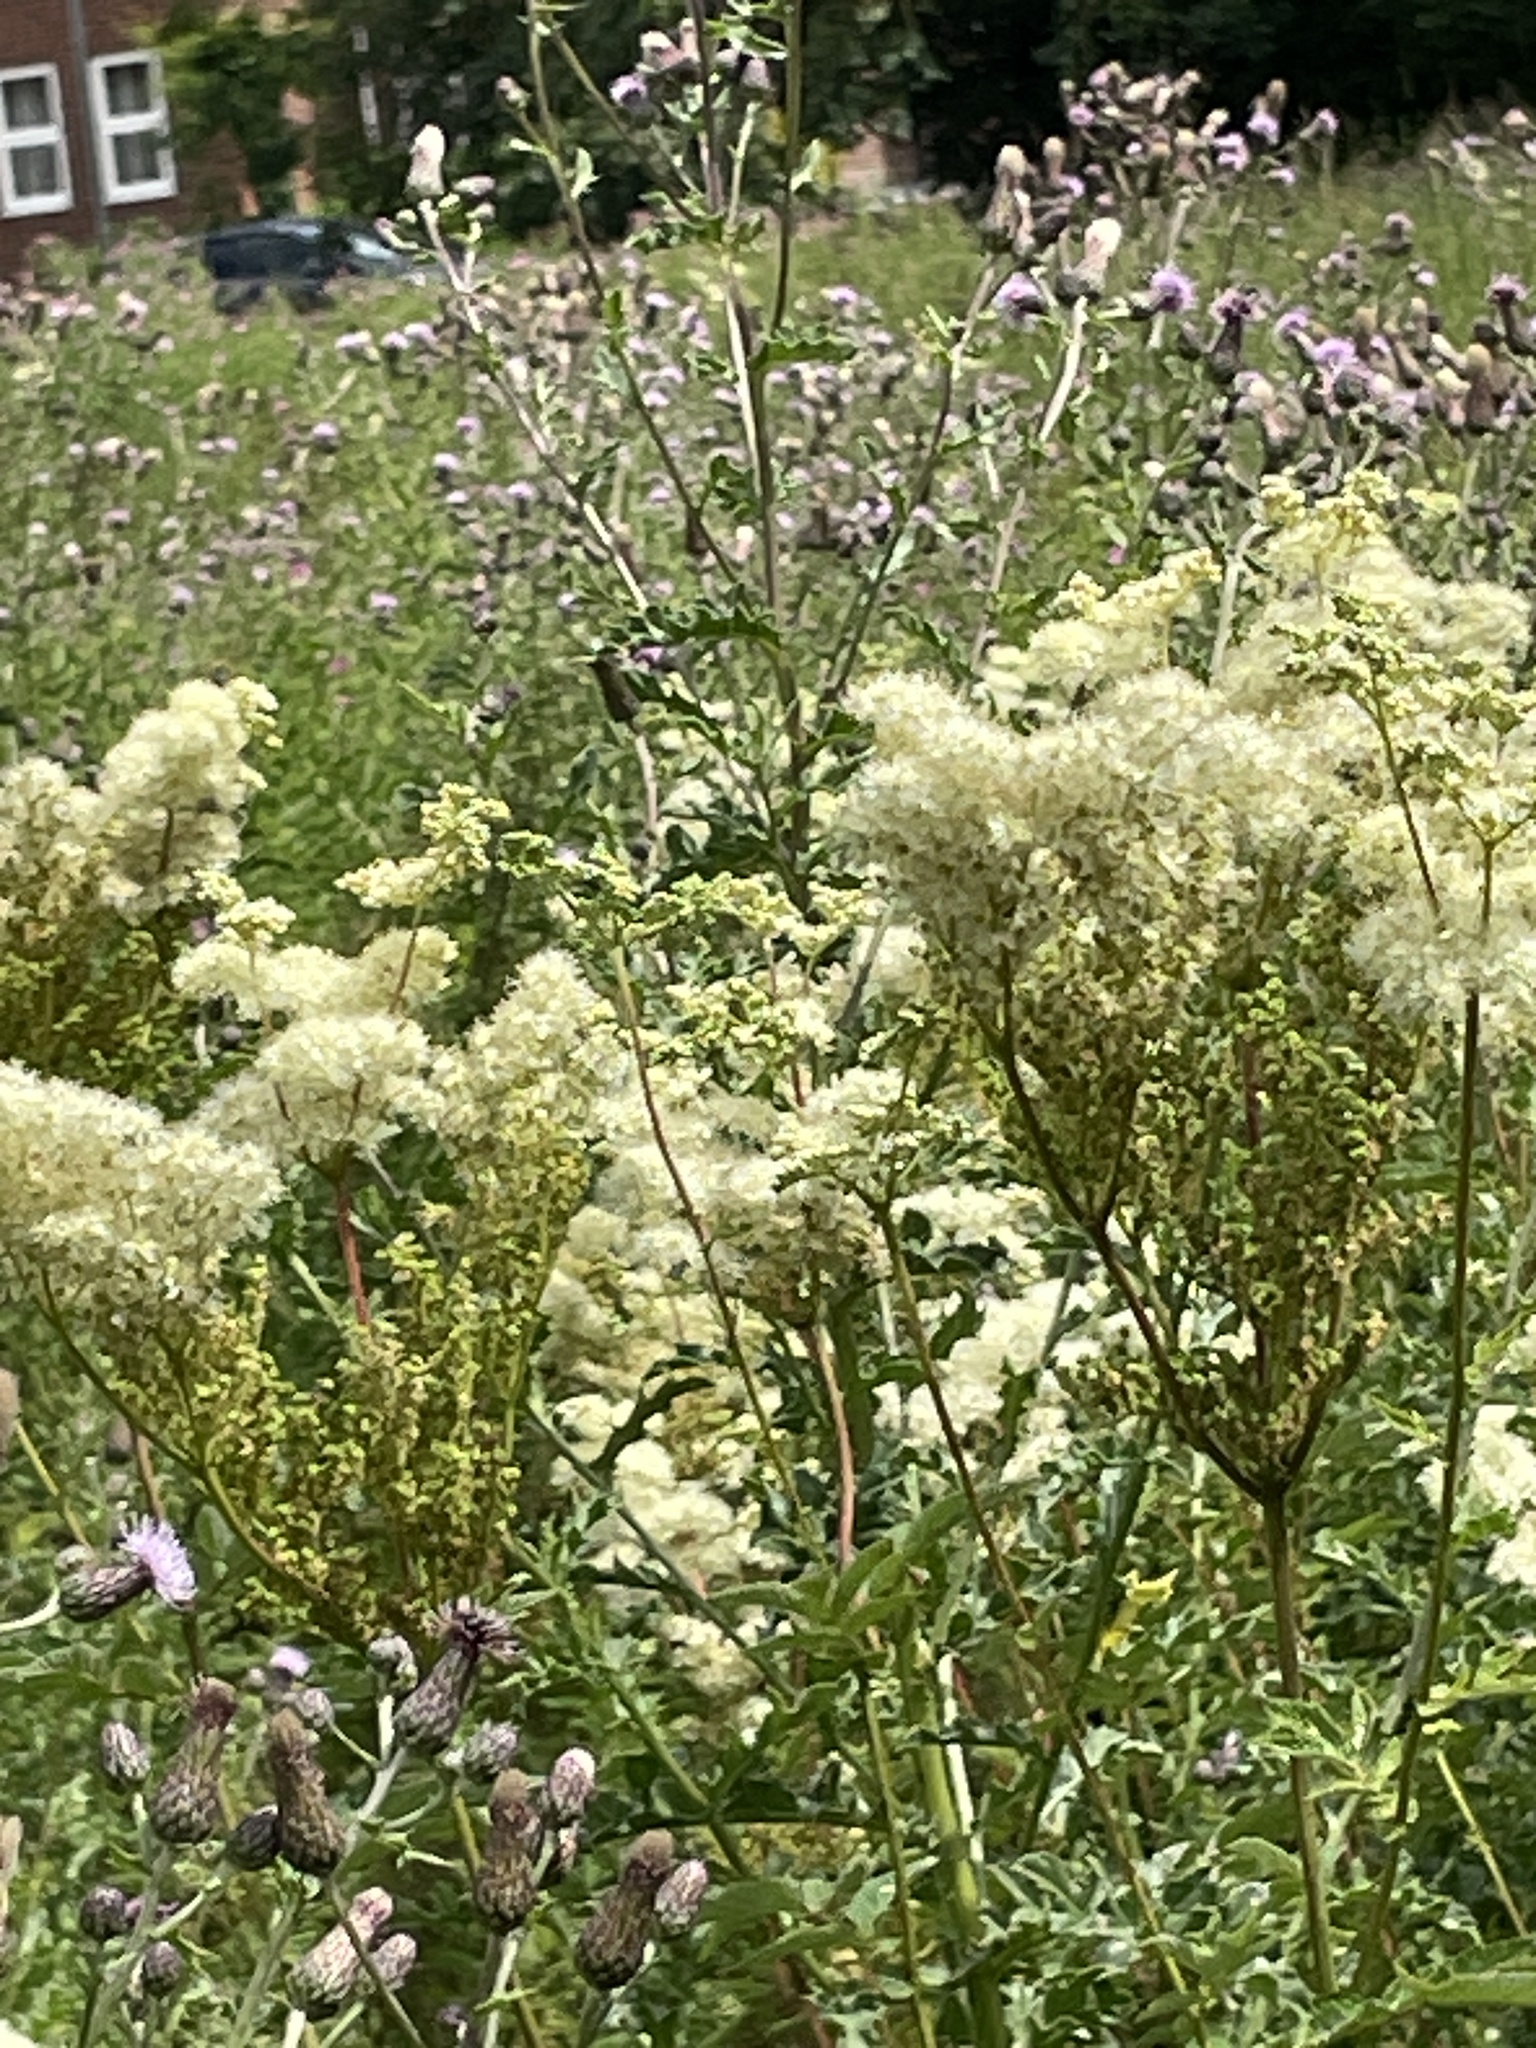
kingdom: Plantae
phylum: Tracheophyta
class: Magnoliopsida
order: Rosales
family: Rosaceae
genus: Filipendula
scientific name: Filipendula ulmaria
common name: Meadowsweet
